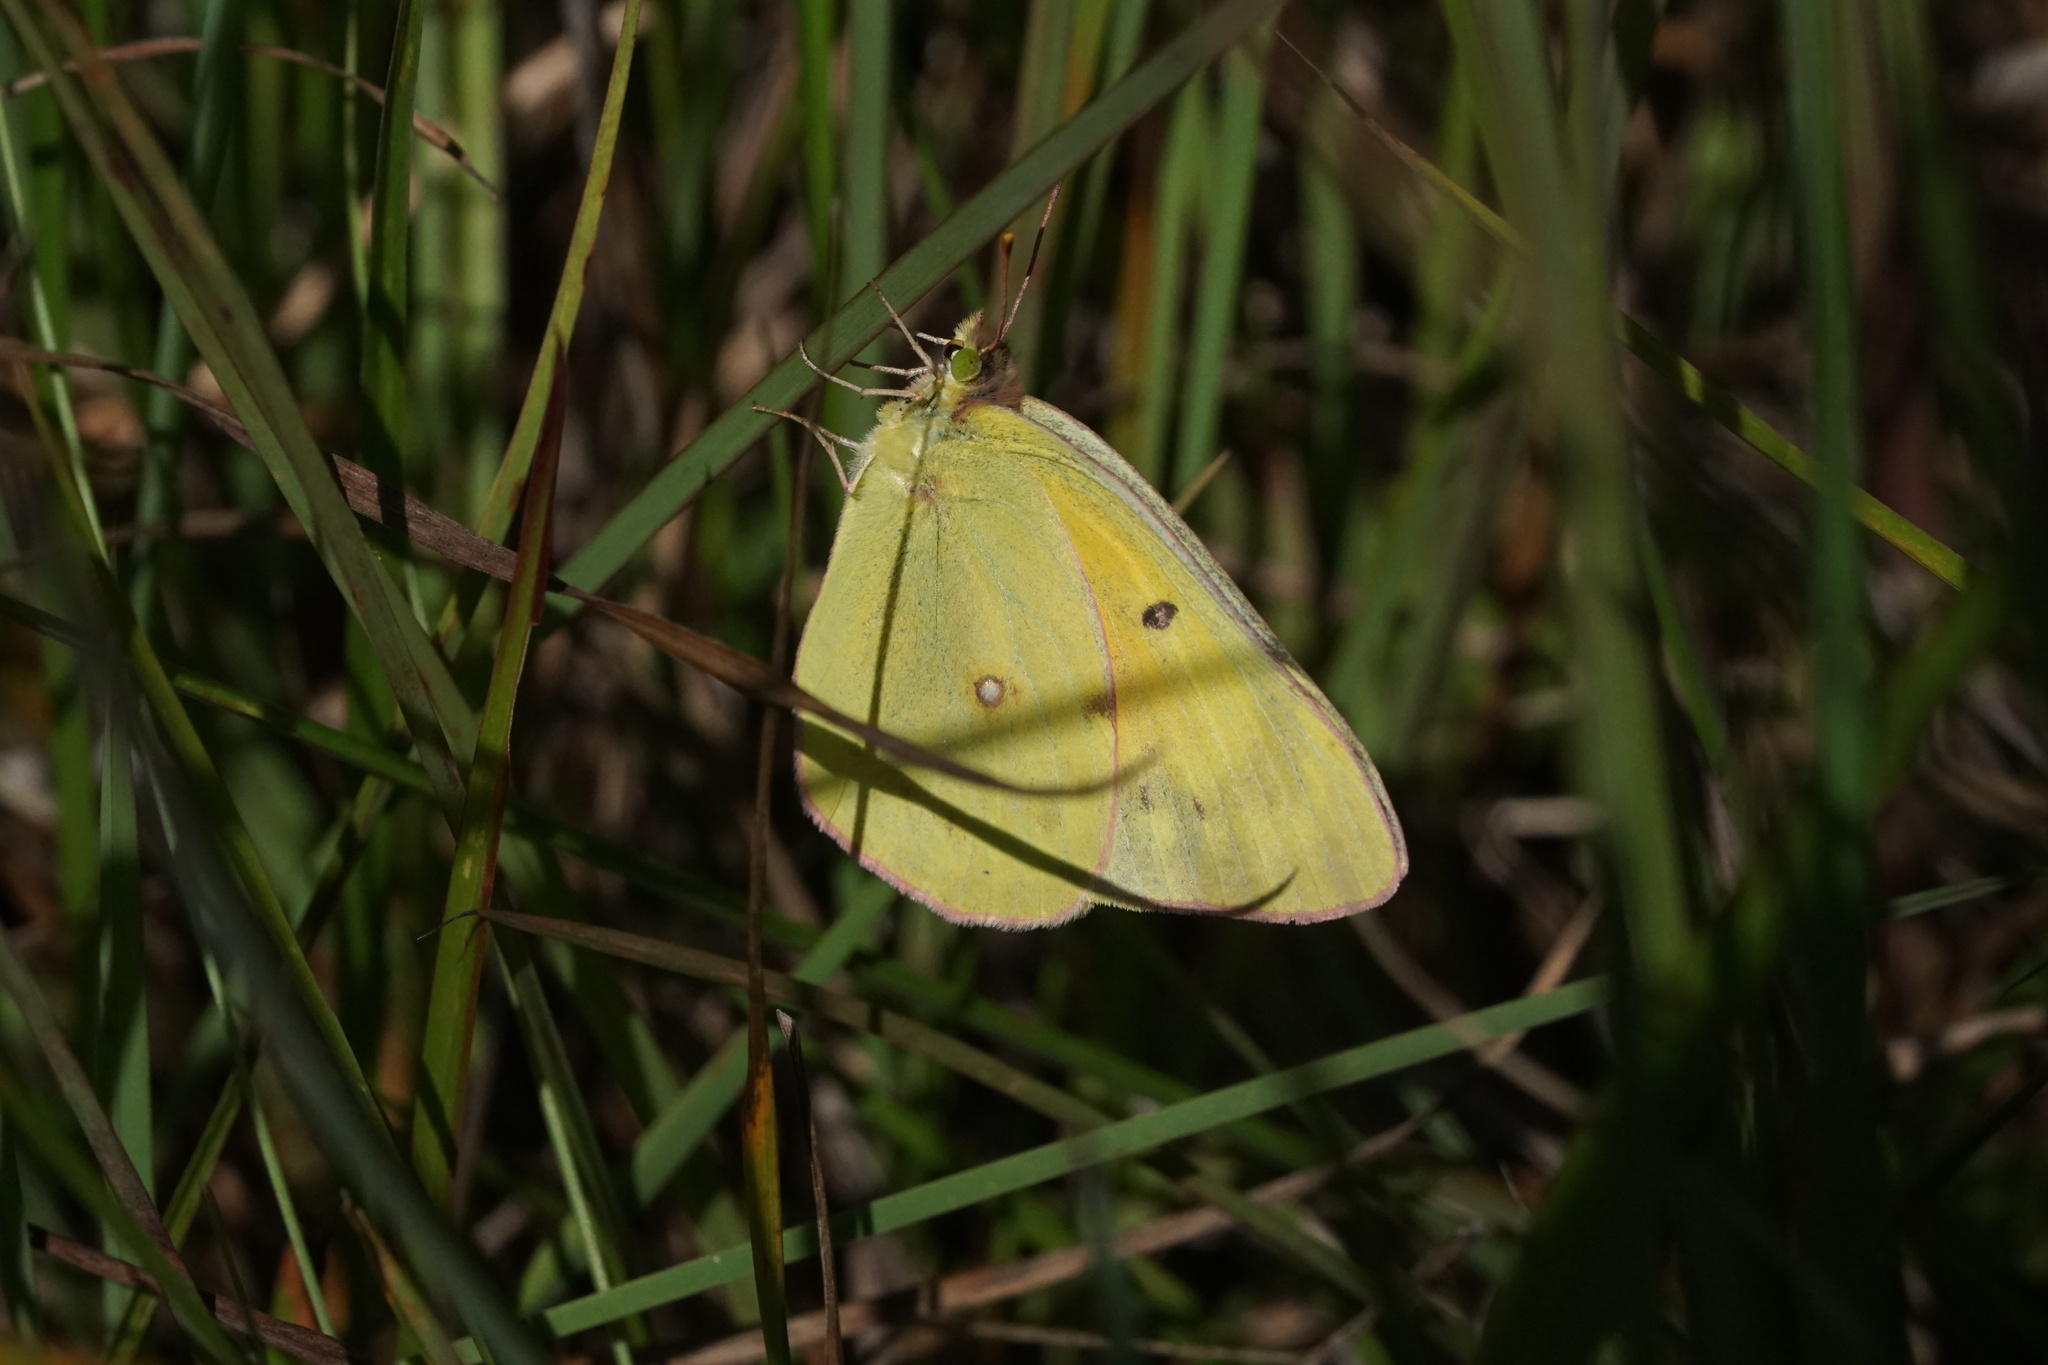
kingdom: Animalia
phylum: Arthropoda
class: Insecta
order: Lepidoptera
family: Pieridae
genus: Colias
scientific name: Colias eurytheme
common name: Alfalfa butterfly
